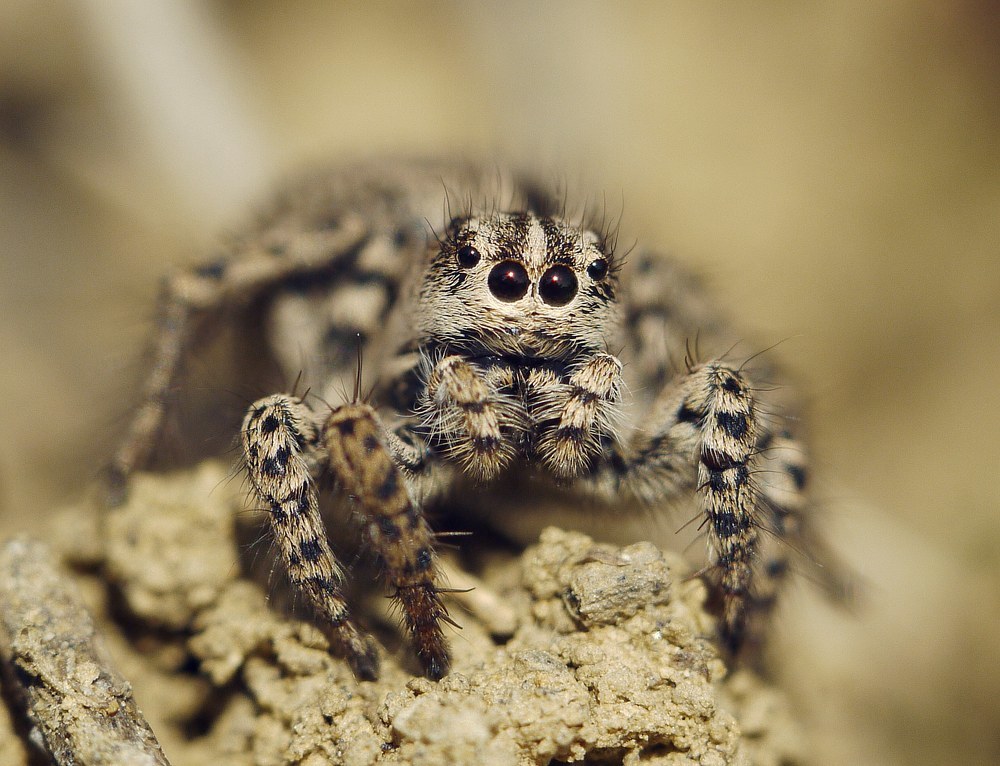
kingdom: Animalia
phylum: Arthropoda
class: Arachnida
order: Araneae
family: Salticidae
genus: Aelurillus
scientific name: Aelurillus m-nigrum
